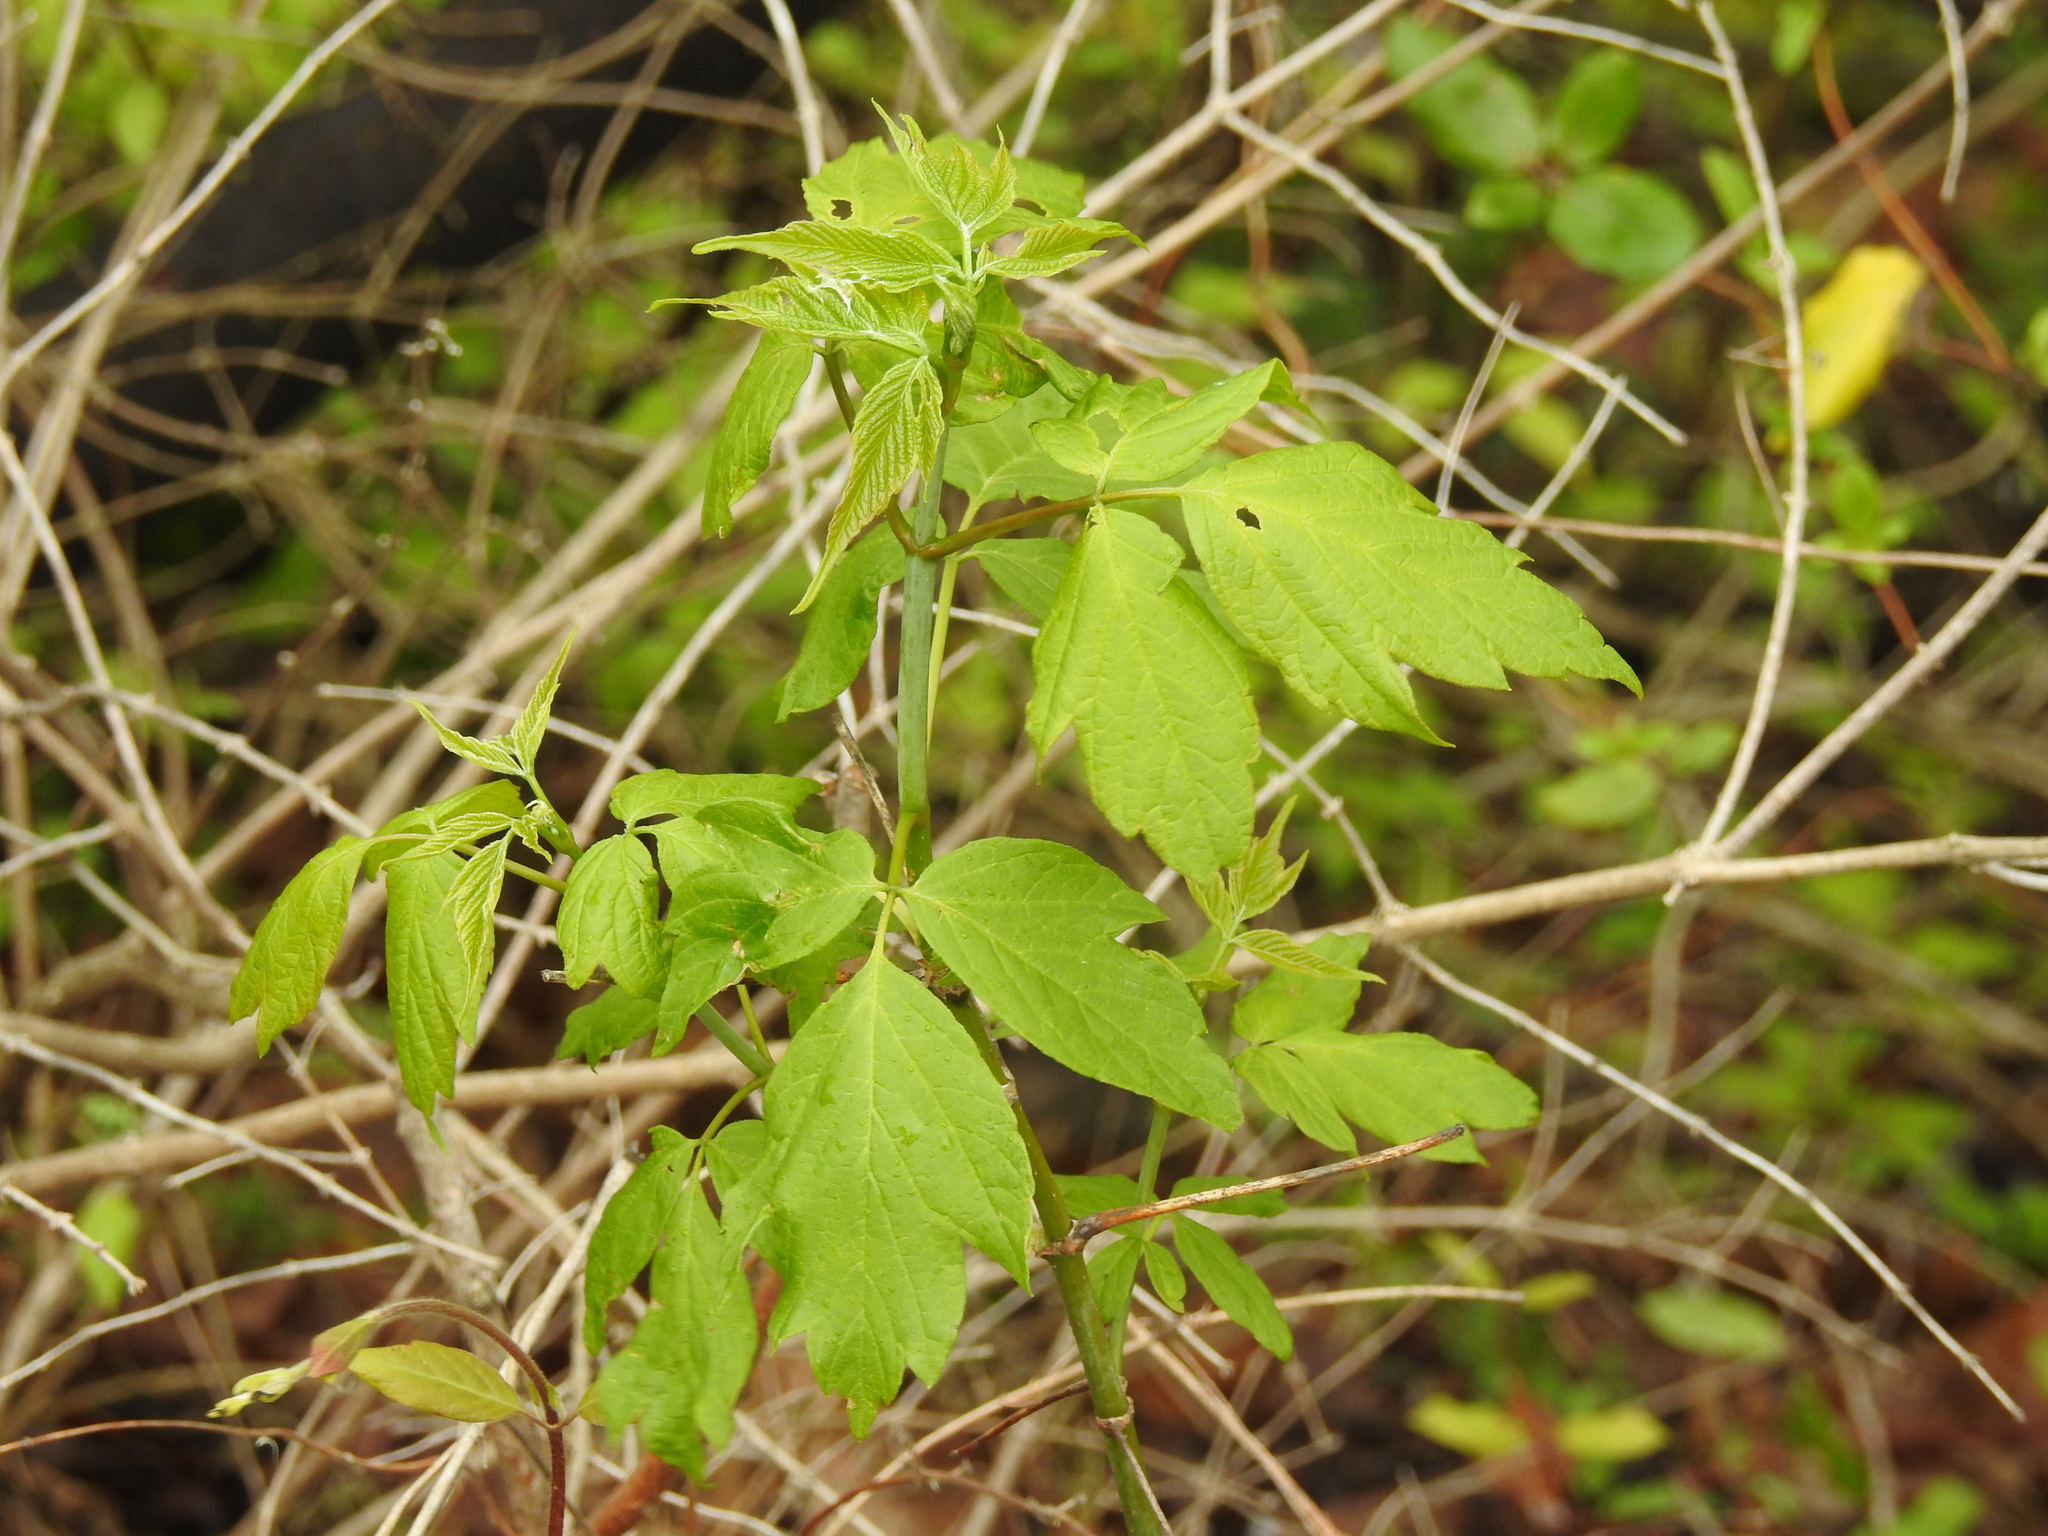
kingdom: Plantae
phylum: Tracheophyta
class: Magnoliopsida
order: Sapindales
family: Sapindaceae
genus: Acer
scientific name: Acer negundo
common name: Ashleaf maple
